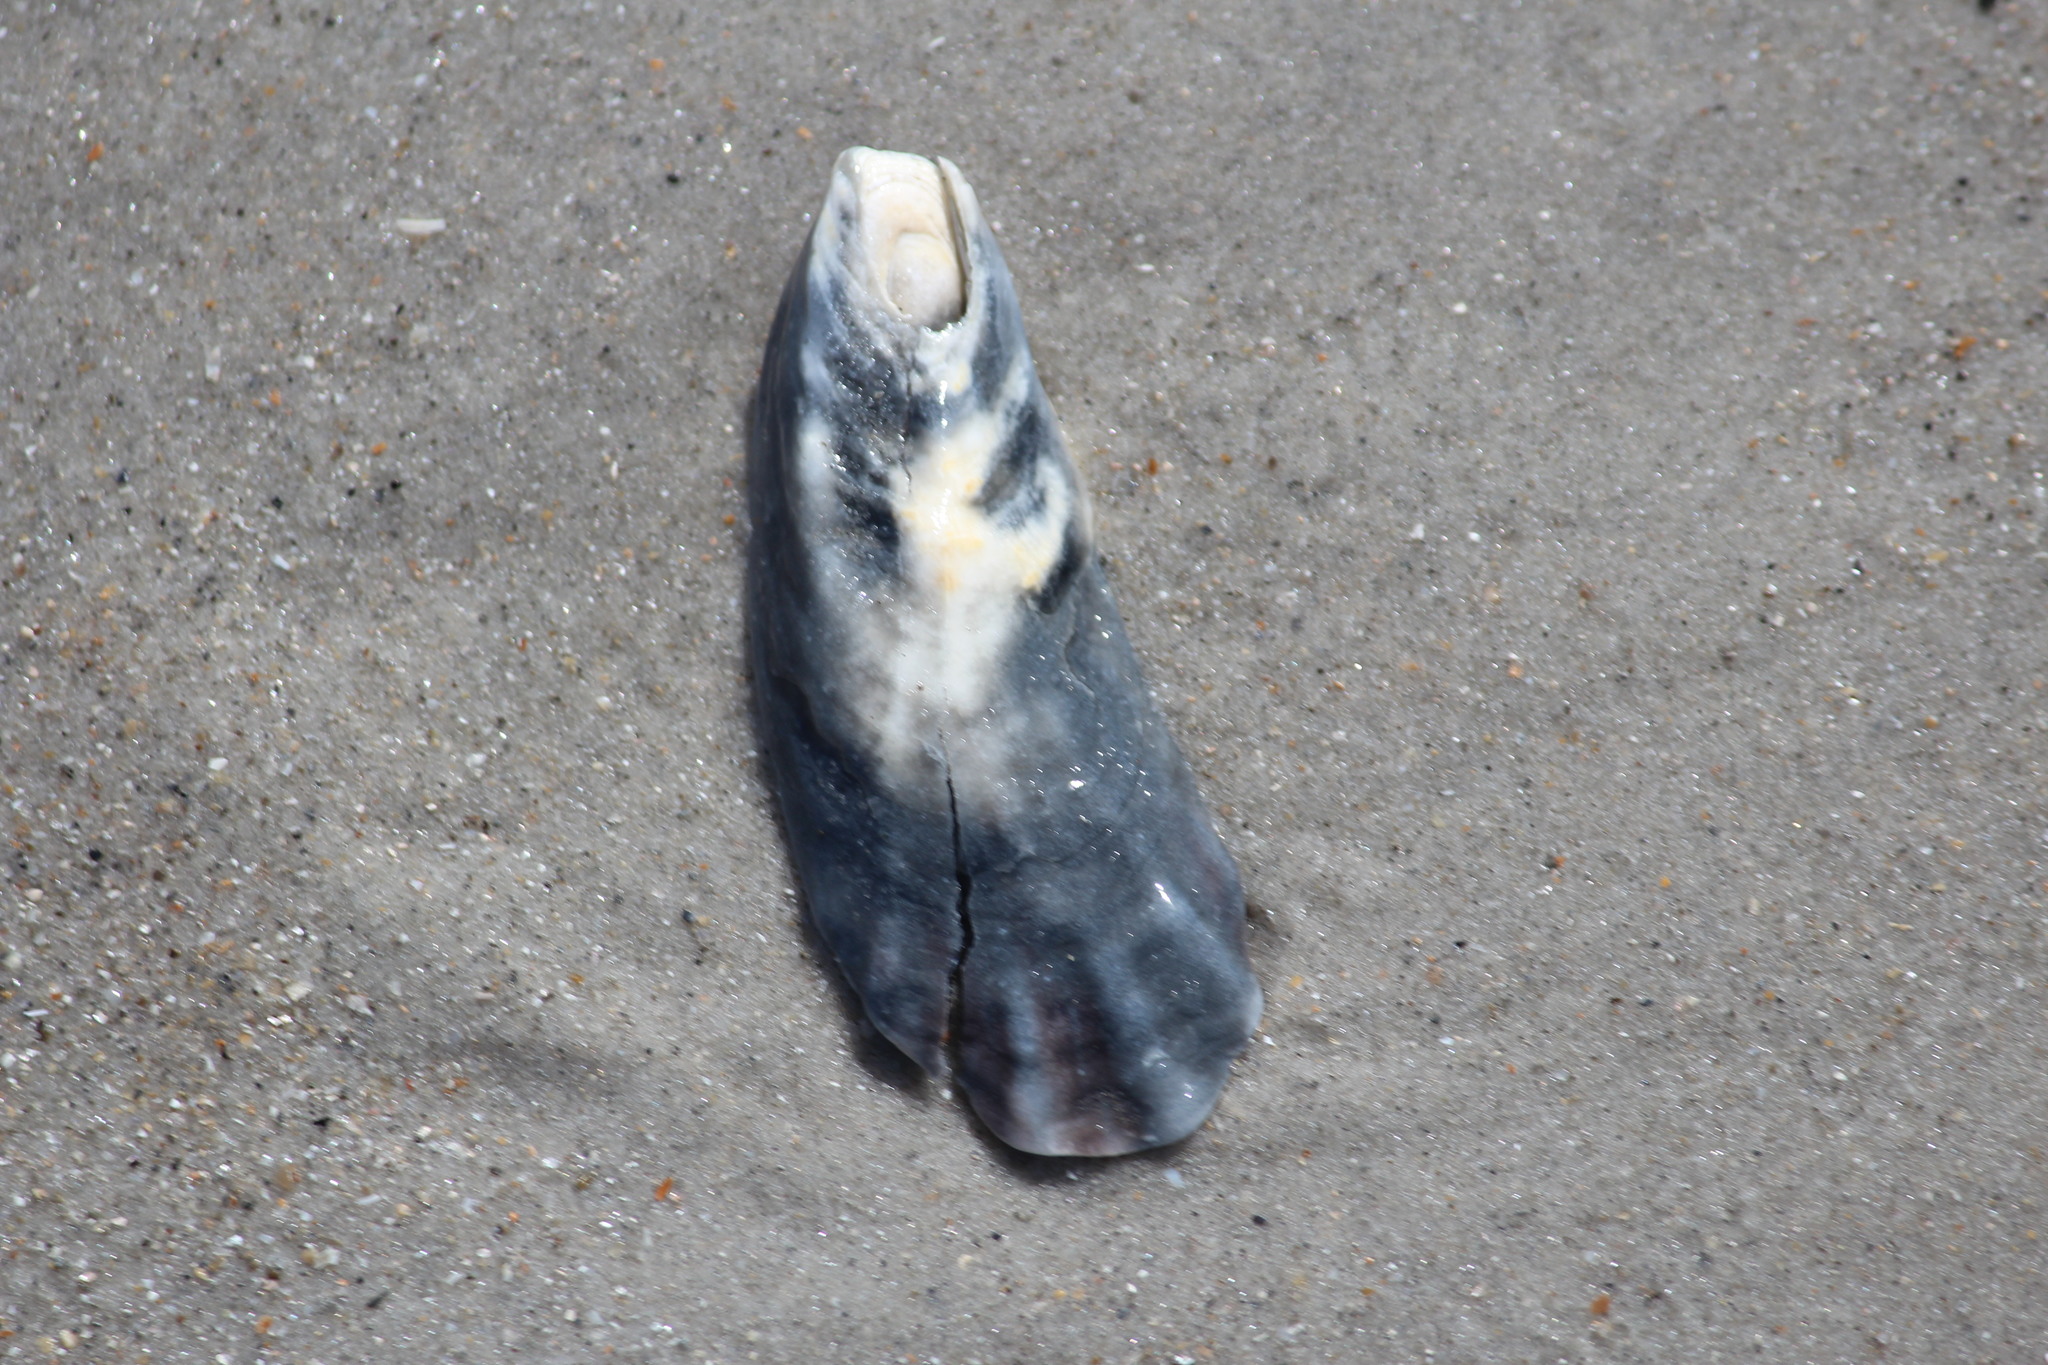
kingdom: Animalia
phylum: Mollusca
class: Bivalvia
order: Ostreida
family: Ostreidae
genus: Crassostrea
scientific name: Crassostrea virginica
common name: American oyster
